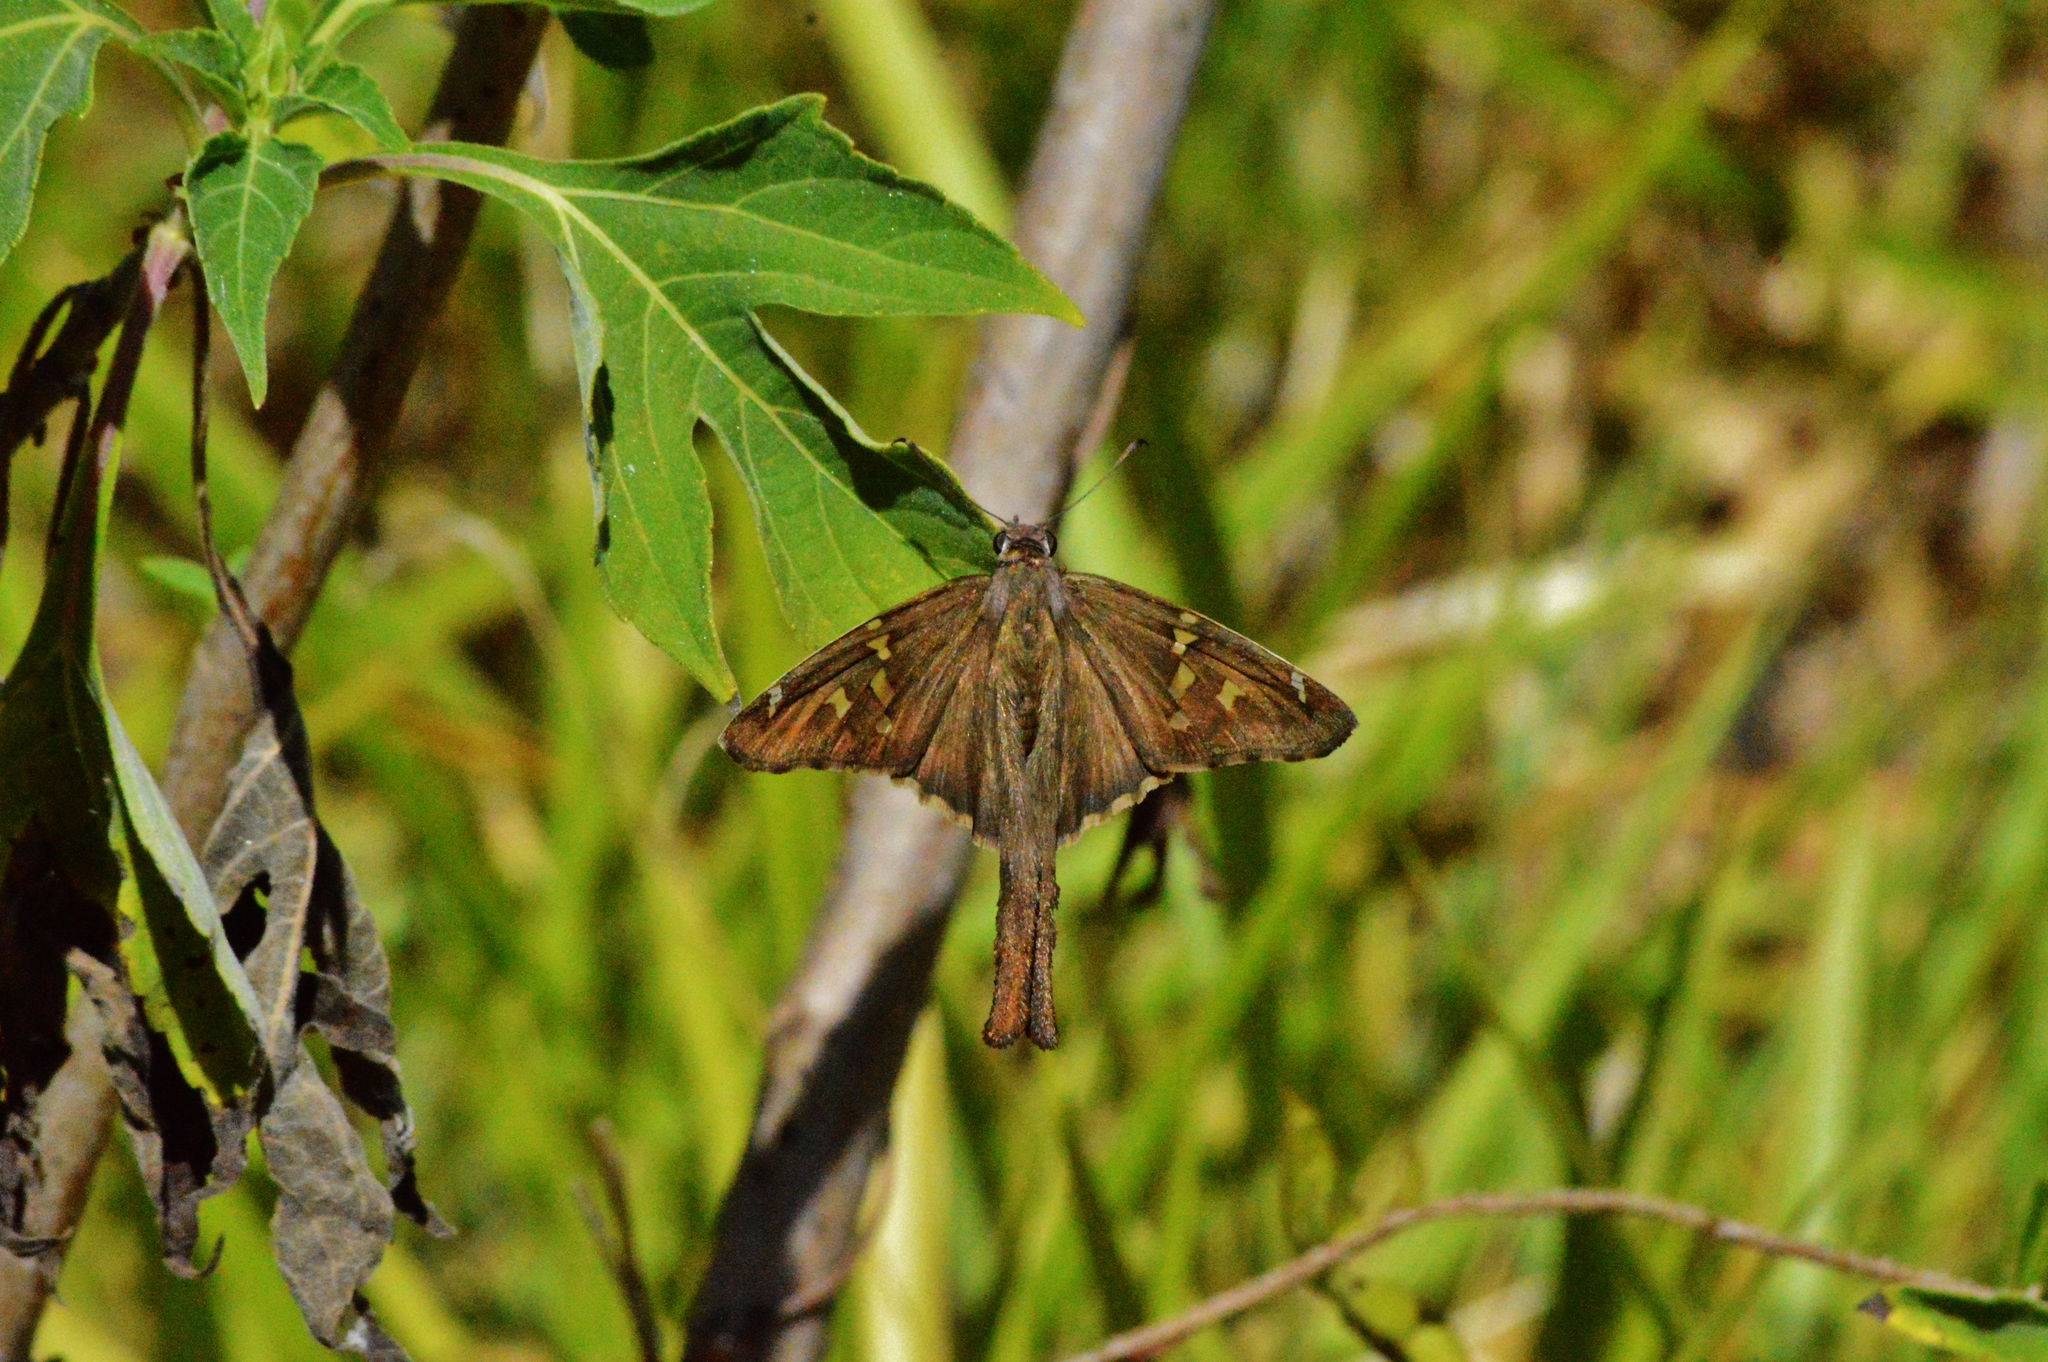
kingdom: Animalia
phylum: Arthropoda
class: Insecta
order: Lepidoptera
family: Hesperiidae
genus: Urbanus
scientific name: Urbanus procne
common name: Brown longtail
